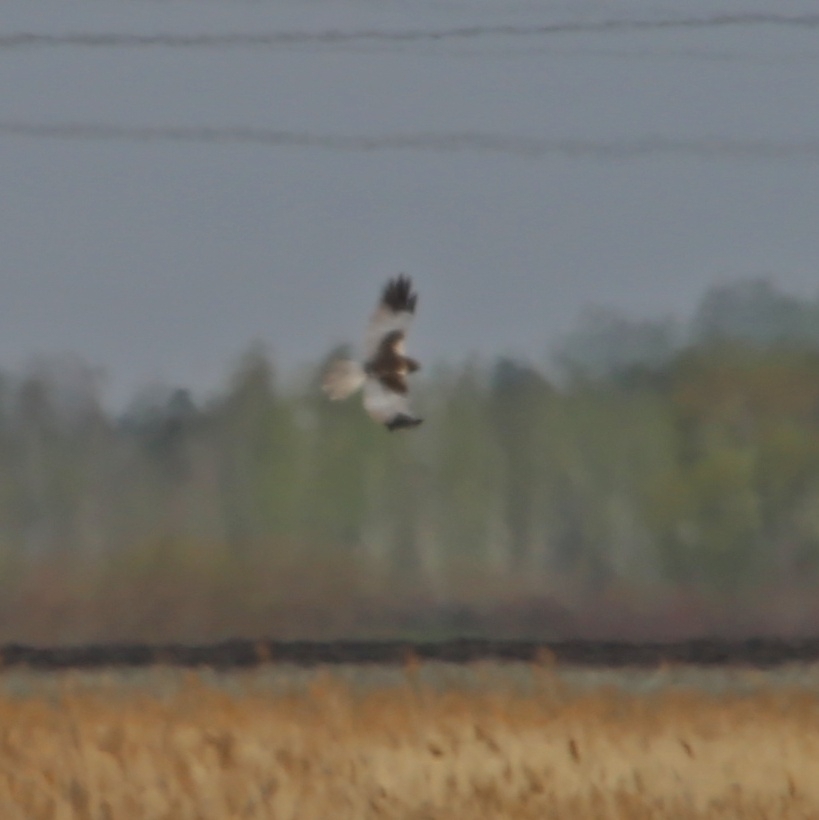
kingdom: Animalia
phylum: Chordata
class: Aves
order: Accipitriformes
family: Accipitridae
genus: Circus
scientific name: Circus aeruginosus
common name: Western marsh harrier
